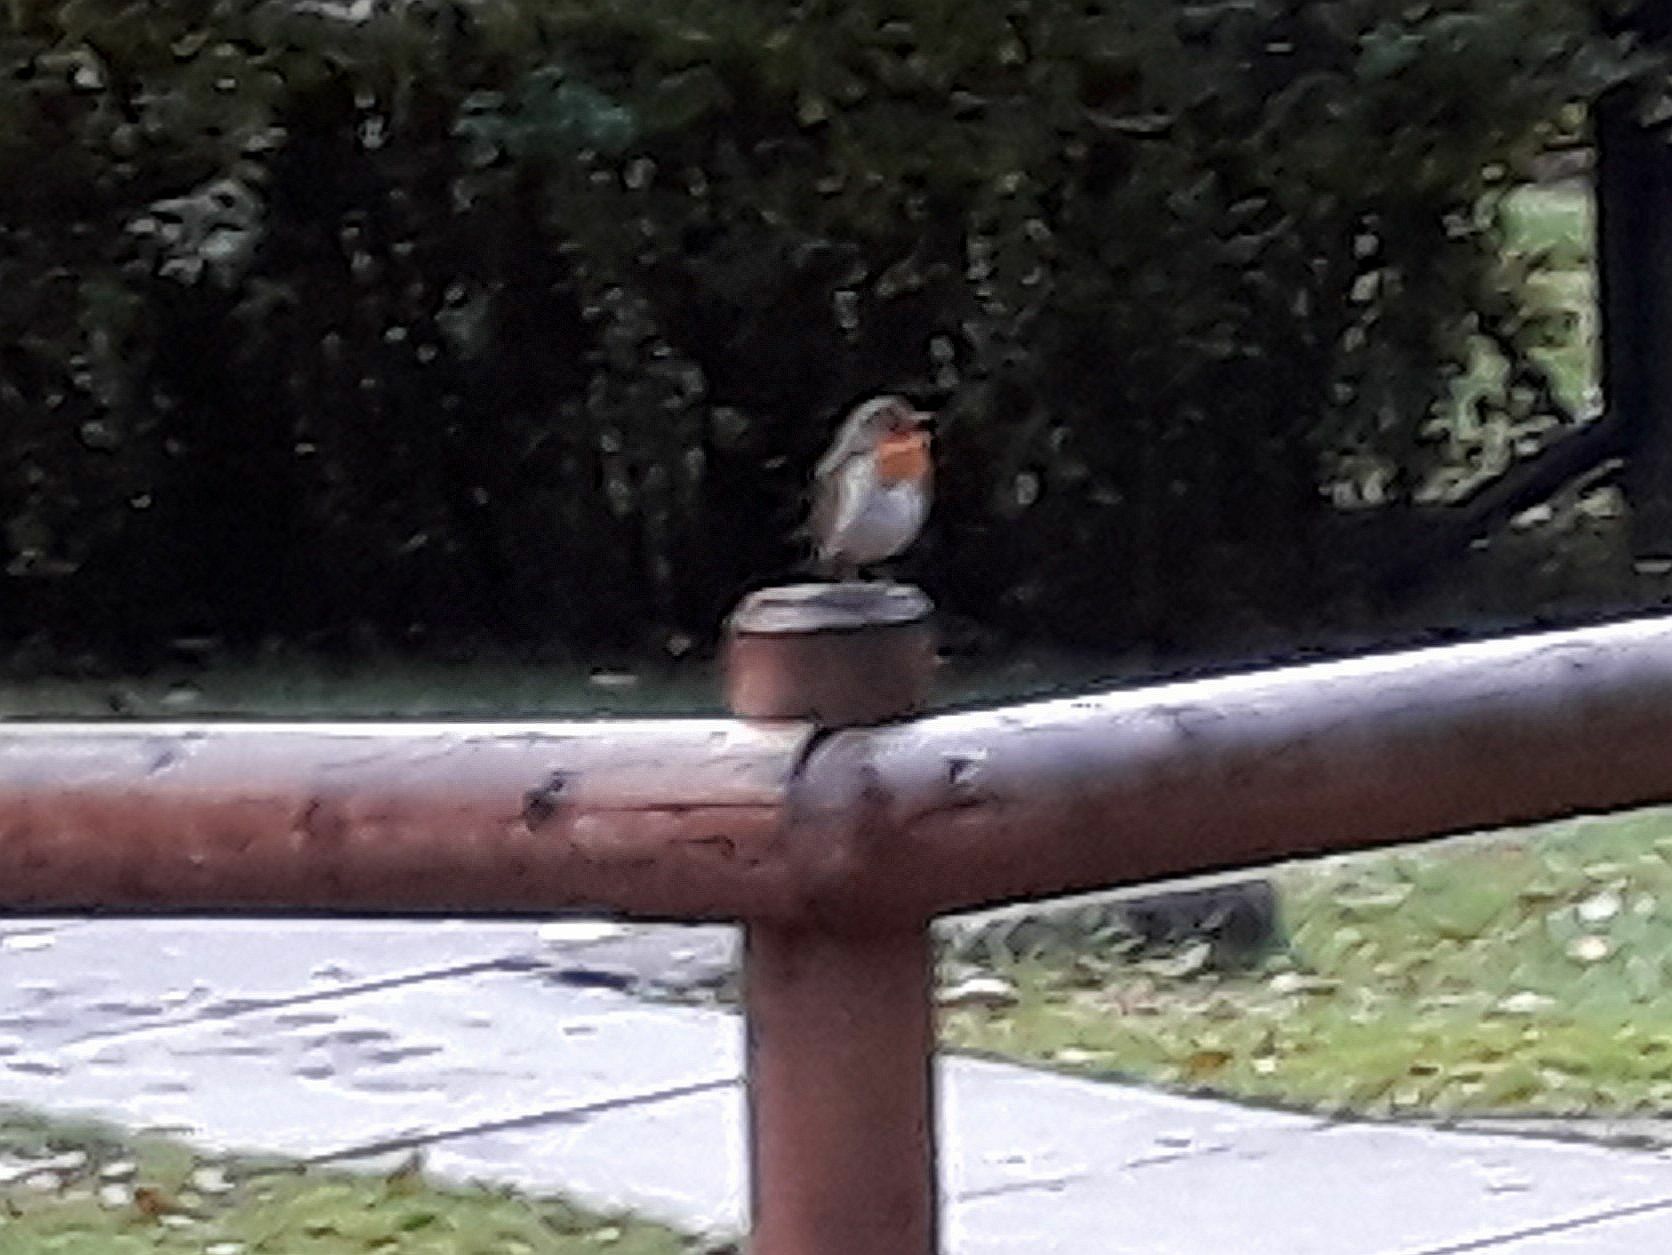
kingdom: Animalia
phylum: Chordata
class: Aves
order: Passeriformes
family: Muscicapidae
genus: Erithacus
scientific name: Erithacus rubecula
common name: European robin
